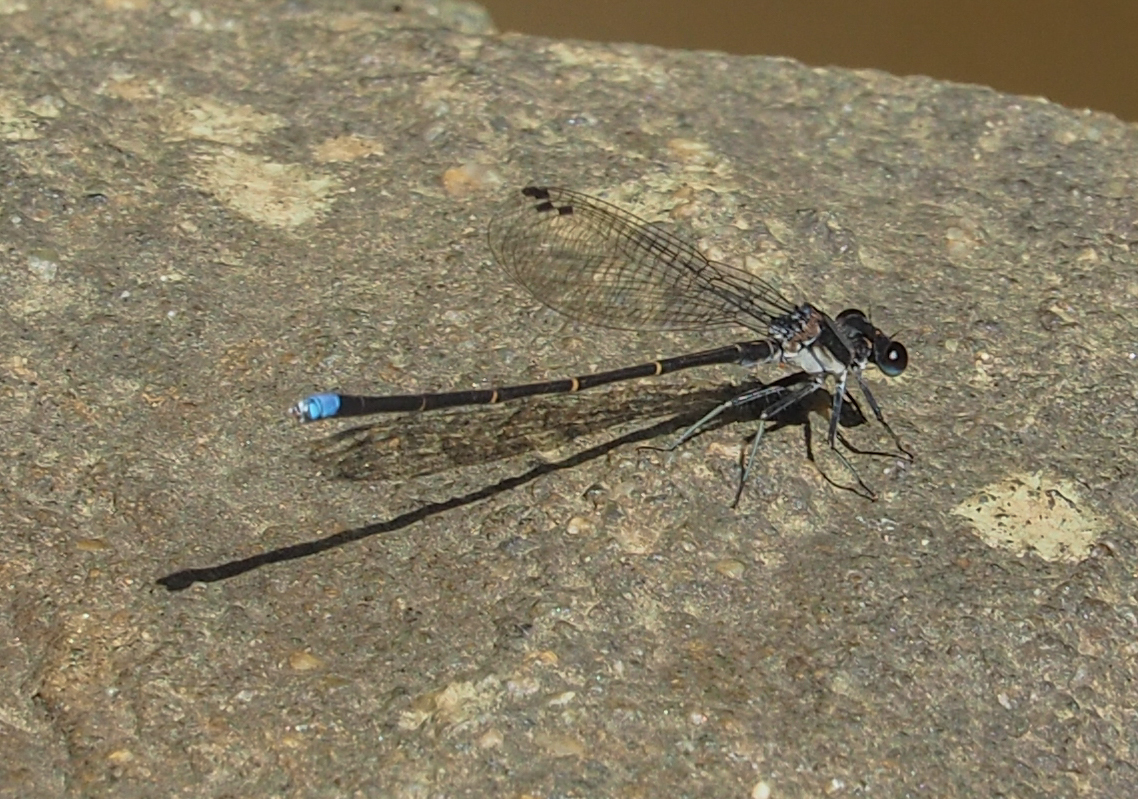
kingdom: Animalia
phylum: Arthropoda
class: Insecta
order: Odonata
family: Coenagrionidae
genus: Argia
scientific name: Argia tibialis
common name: Blue-tipped dancer
